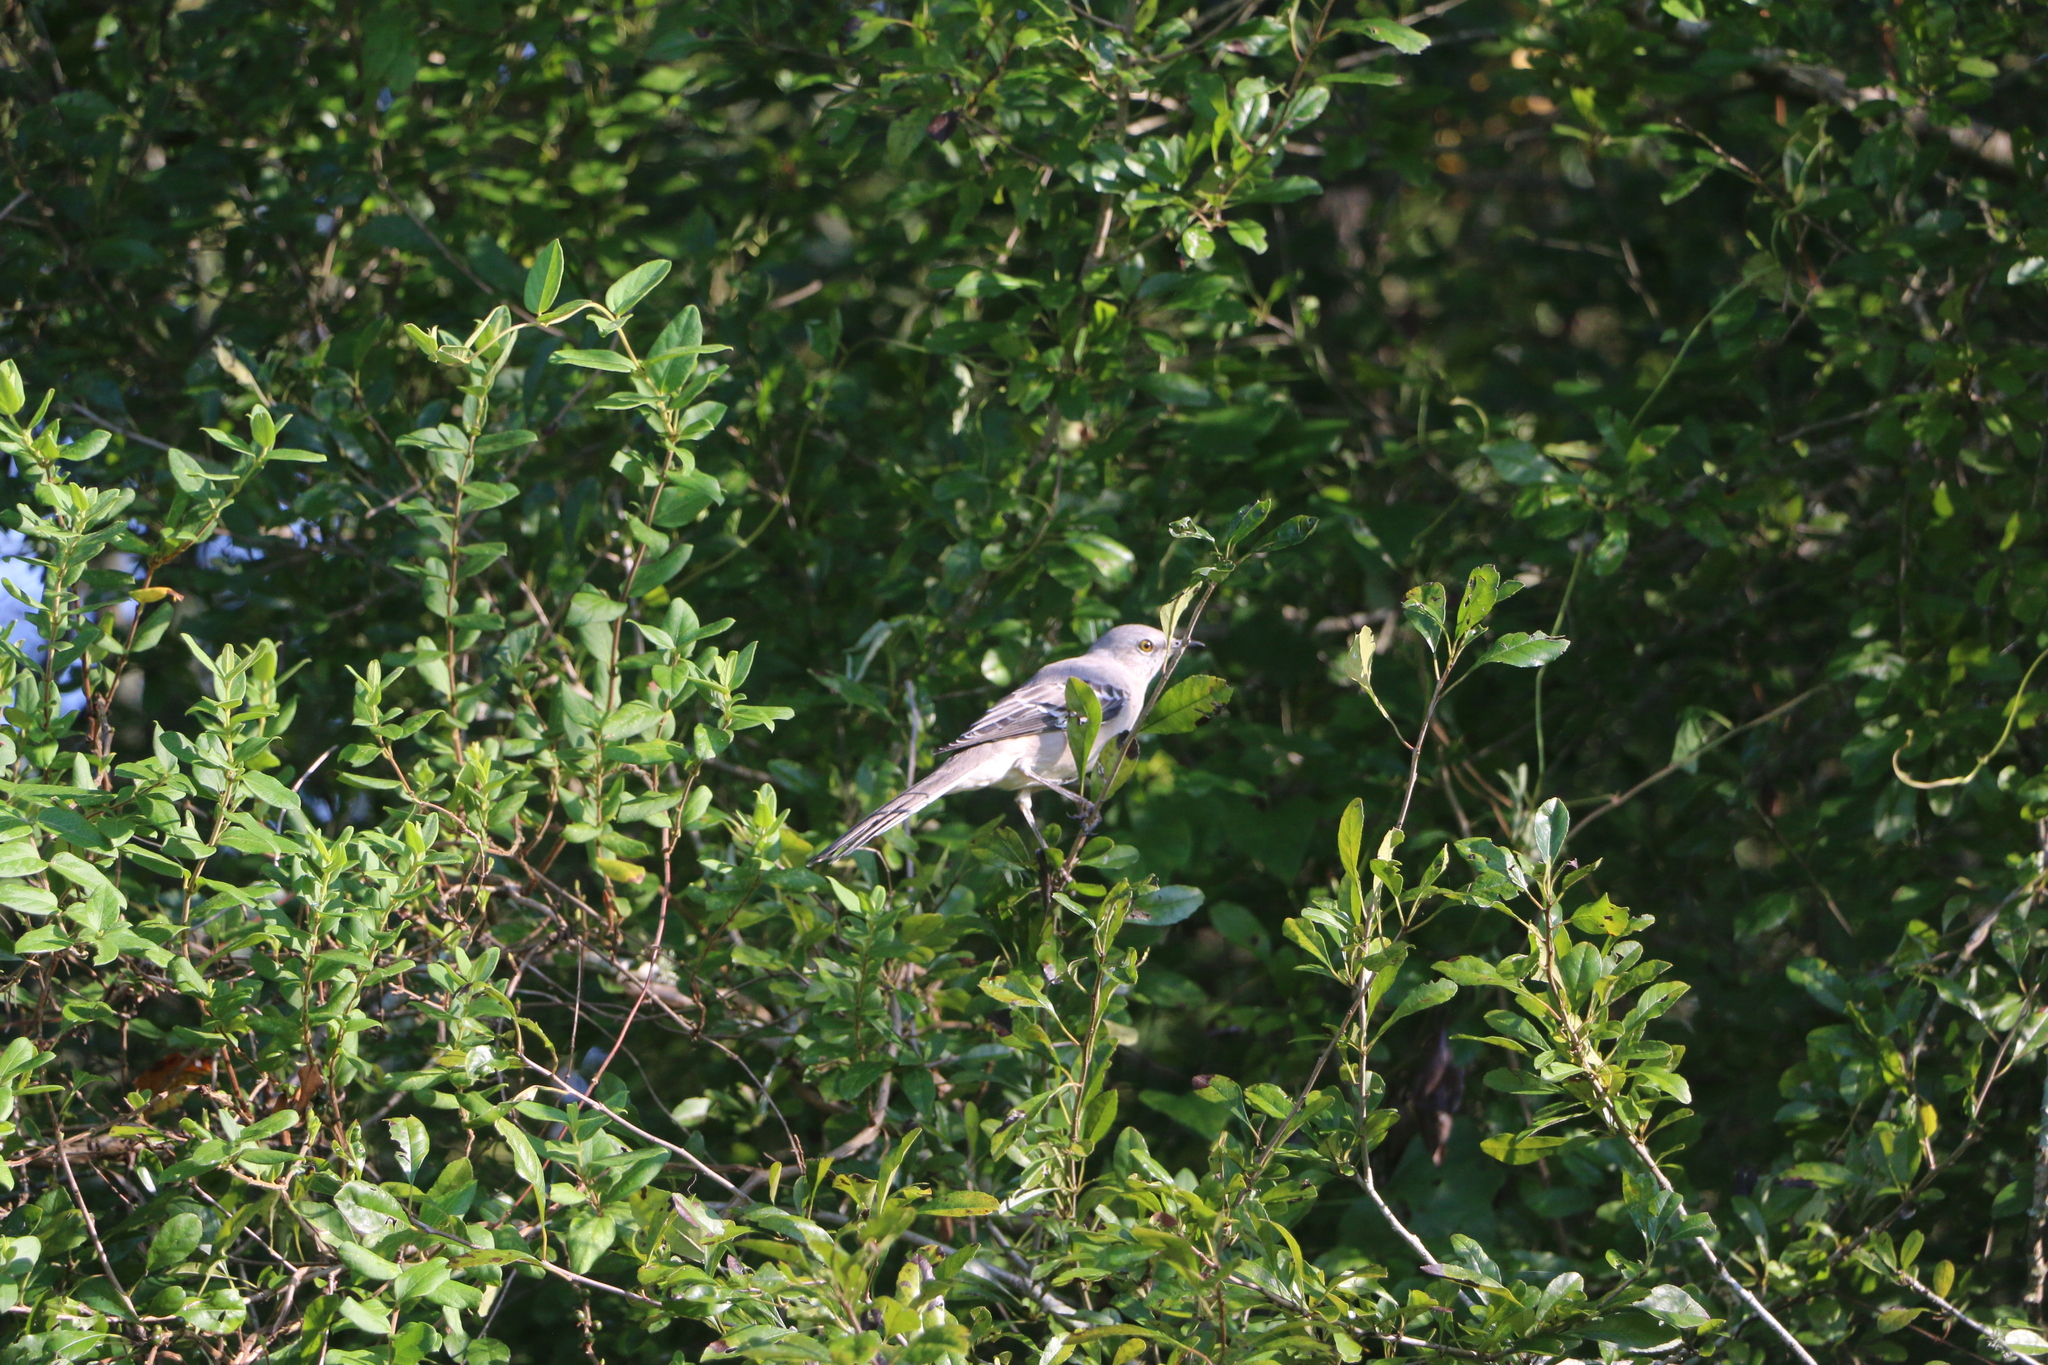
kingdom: Animalia
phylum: Chordata
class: Aves
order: Passeriformes
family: Mimidae
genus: Mimus
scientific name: Mimus polyglottos
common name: Northern mockingbird
